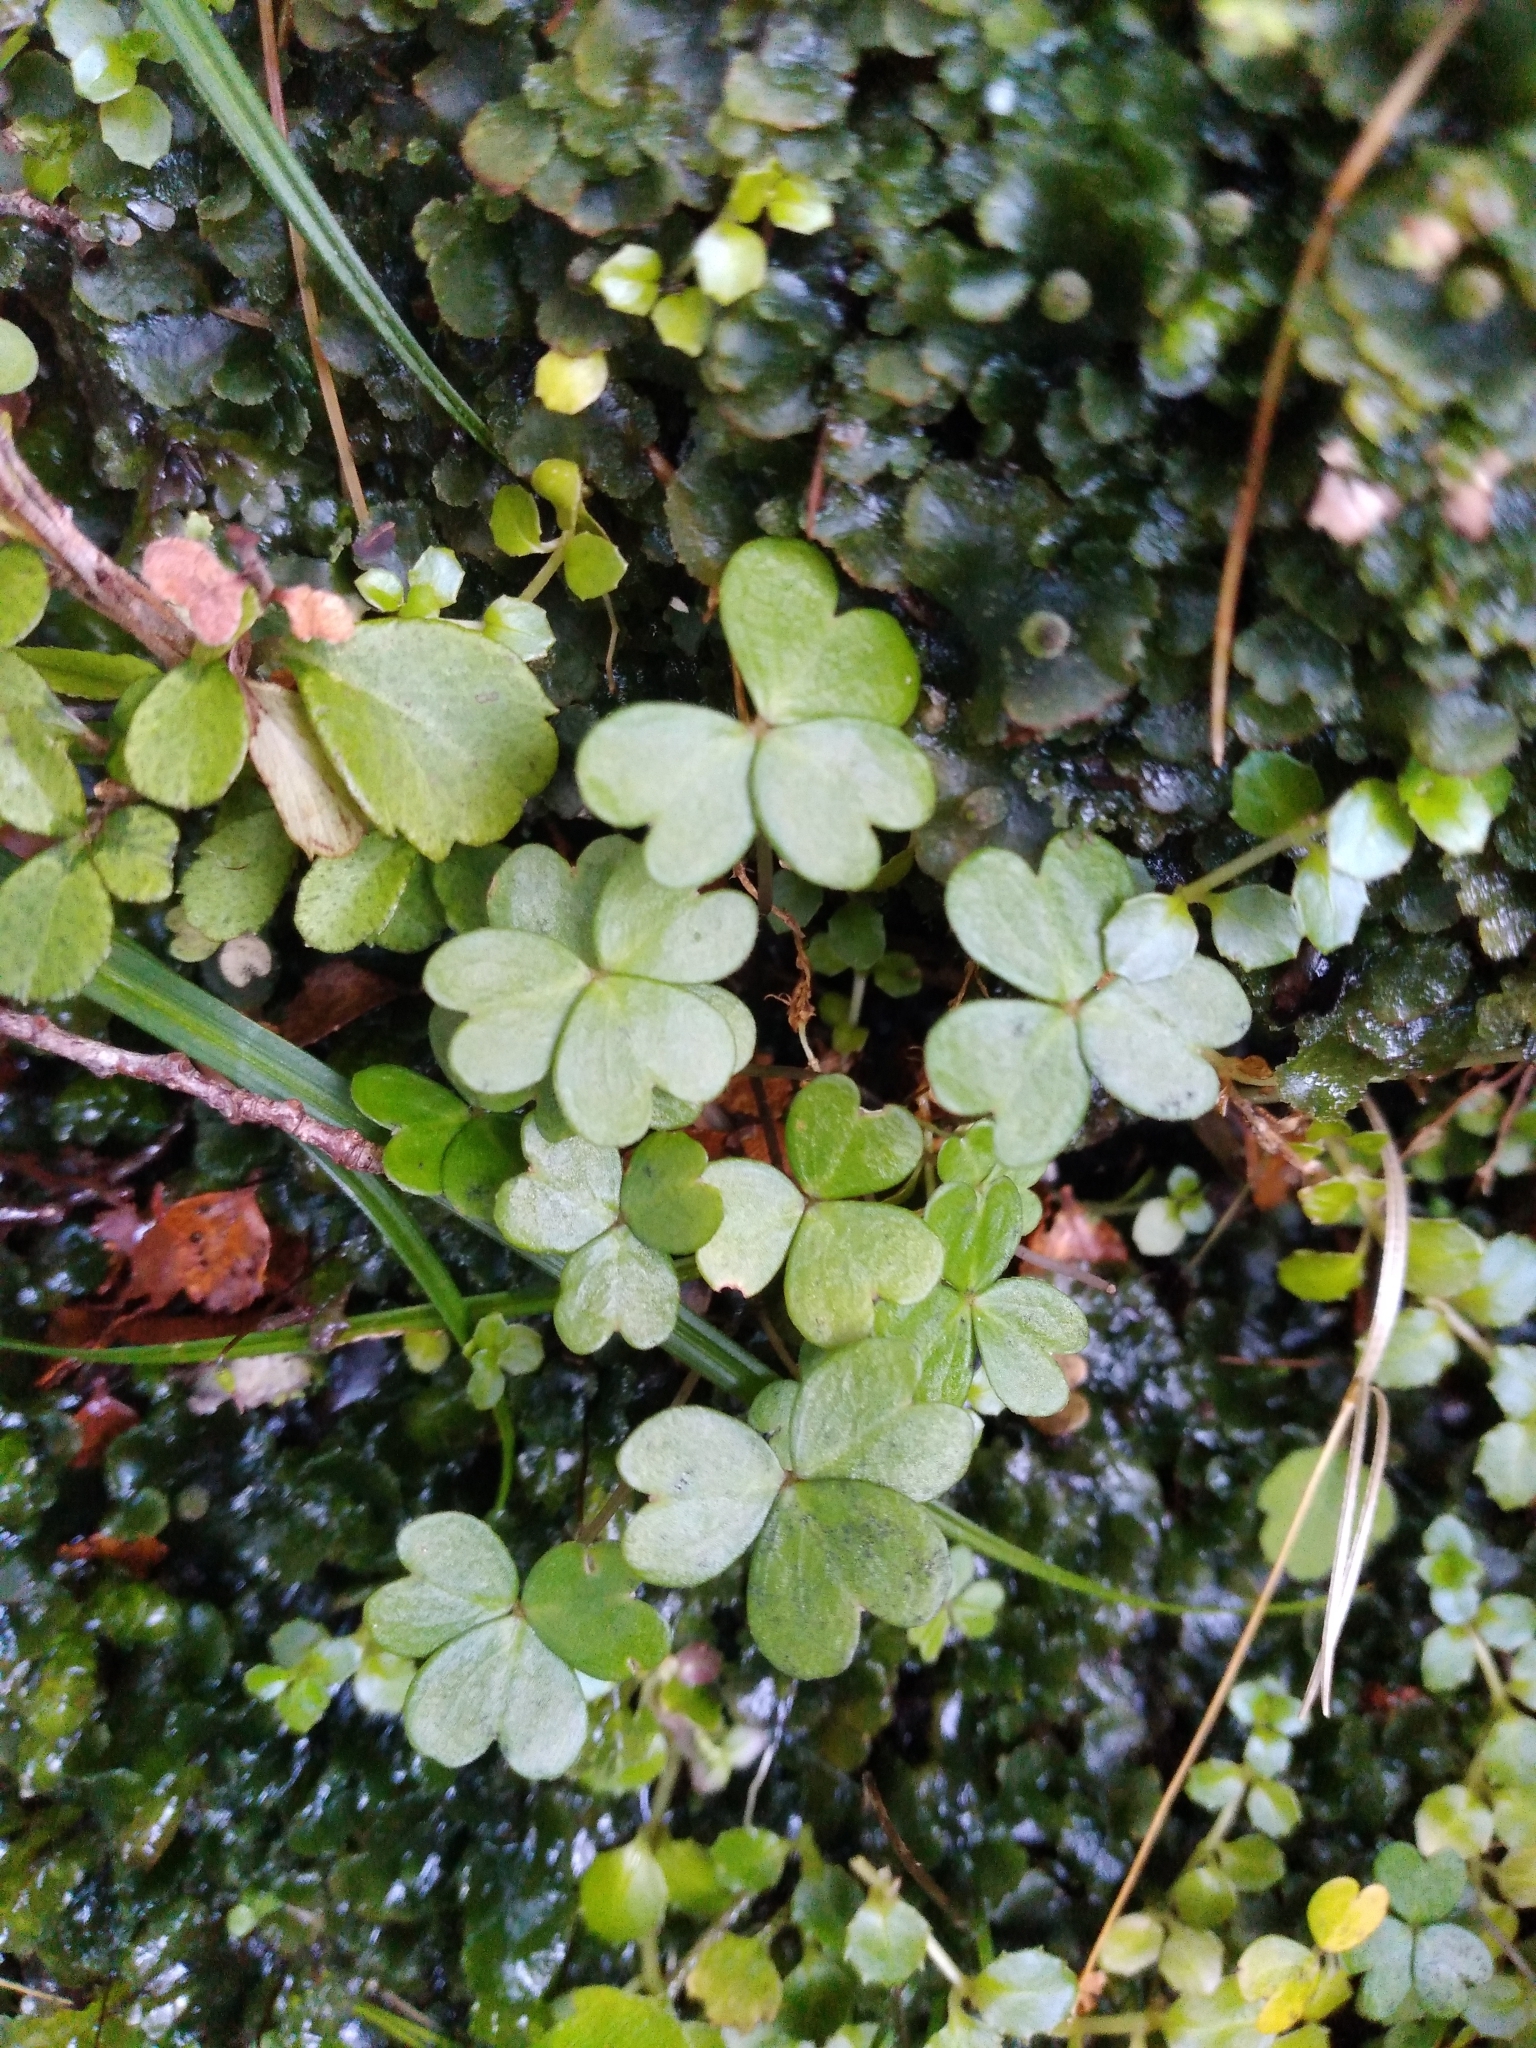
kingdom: Plantae
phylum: Tracheophyta
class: Magnoliopsida
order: Oxalidales
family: Oxalidaceae
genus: Oxalis
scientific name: Oxalis magellanica
